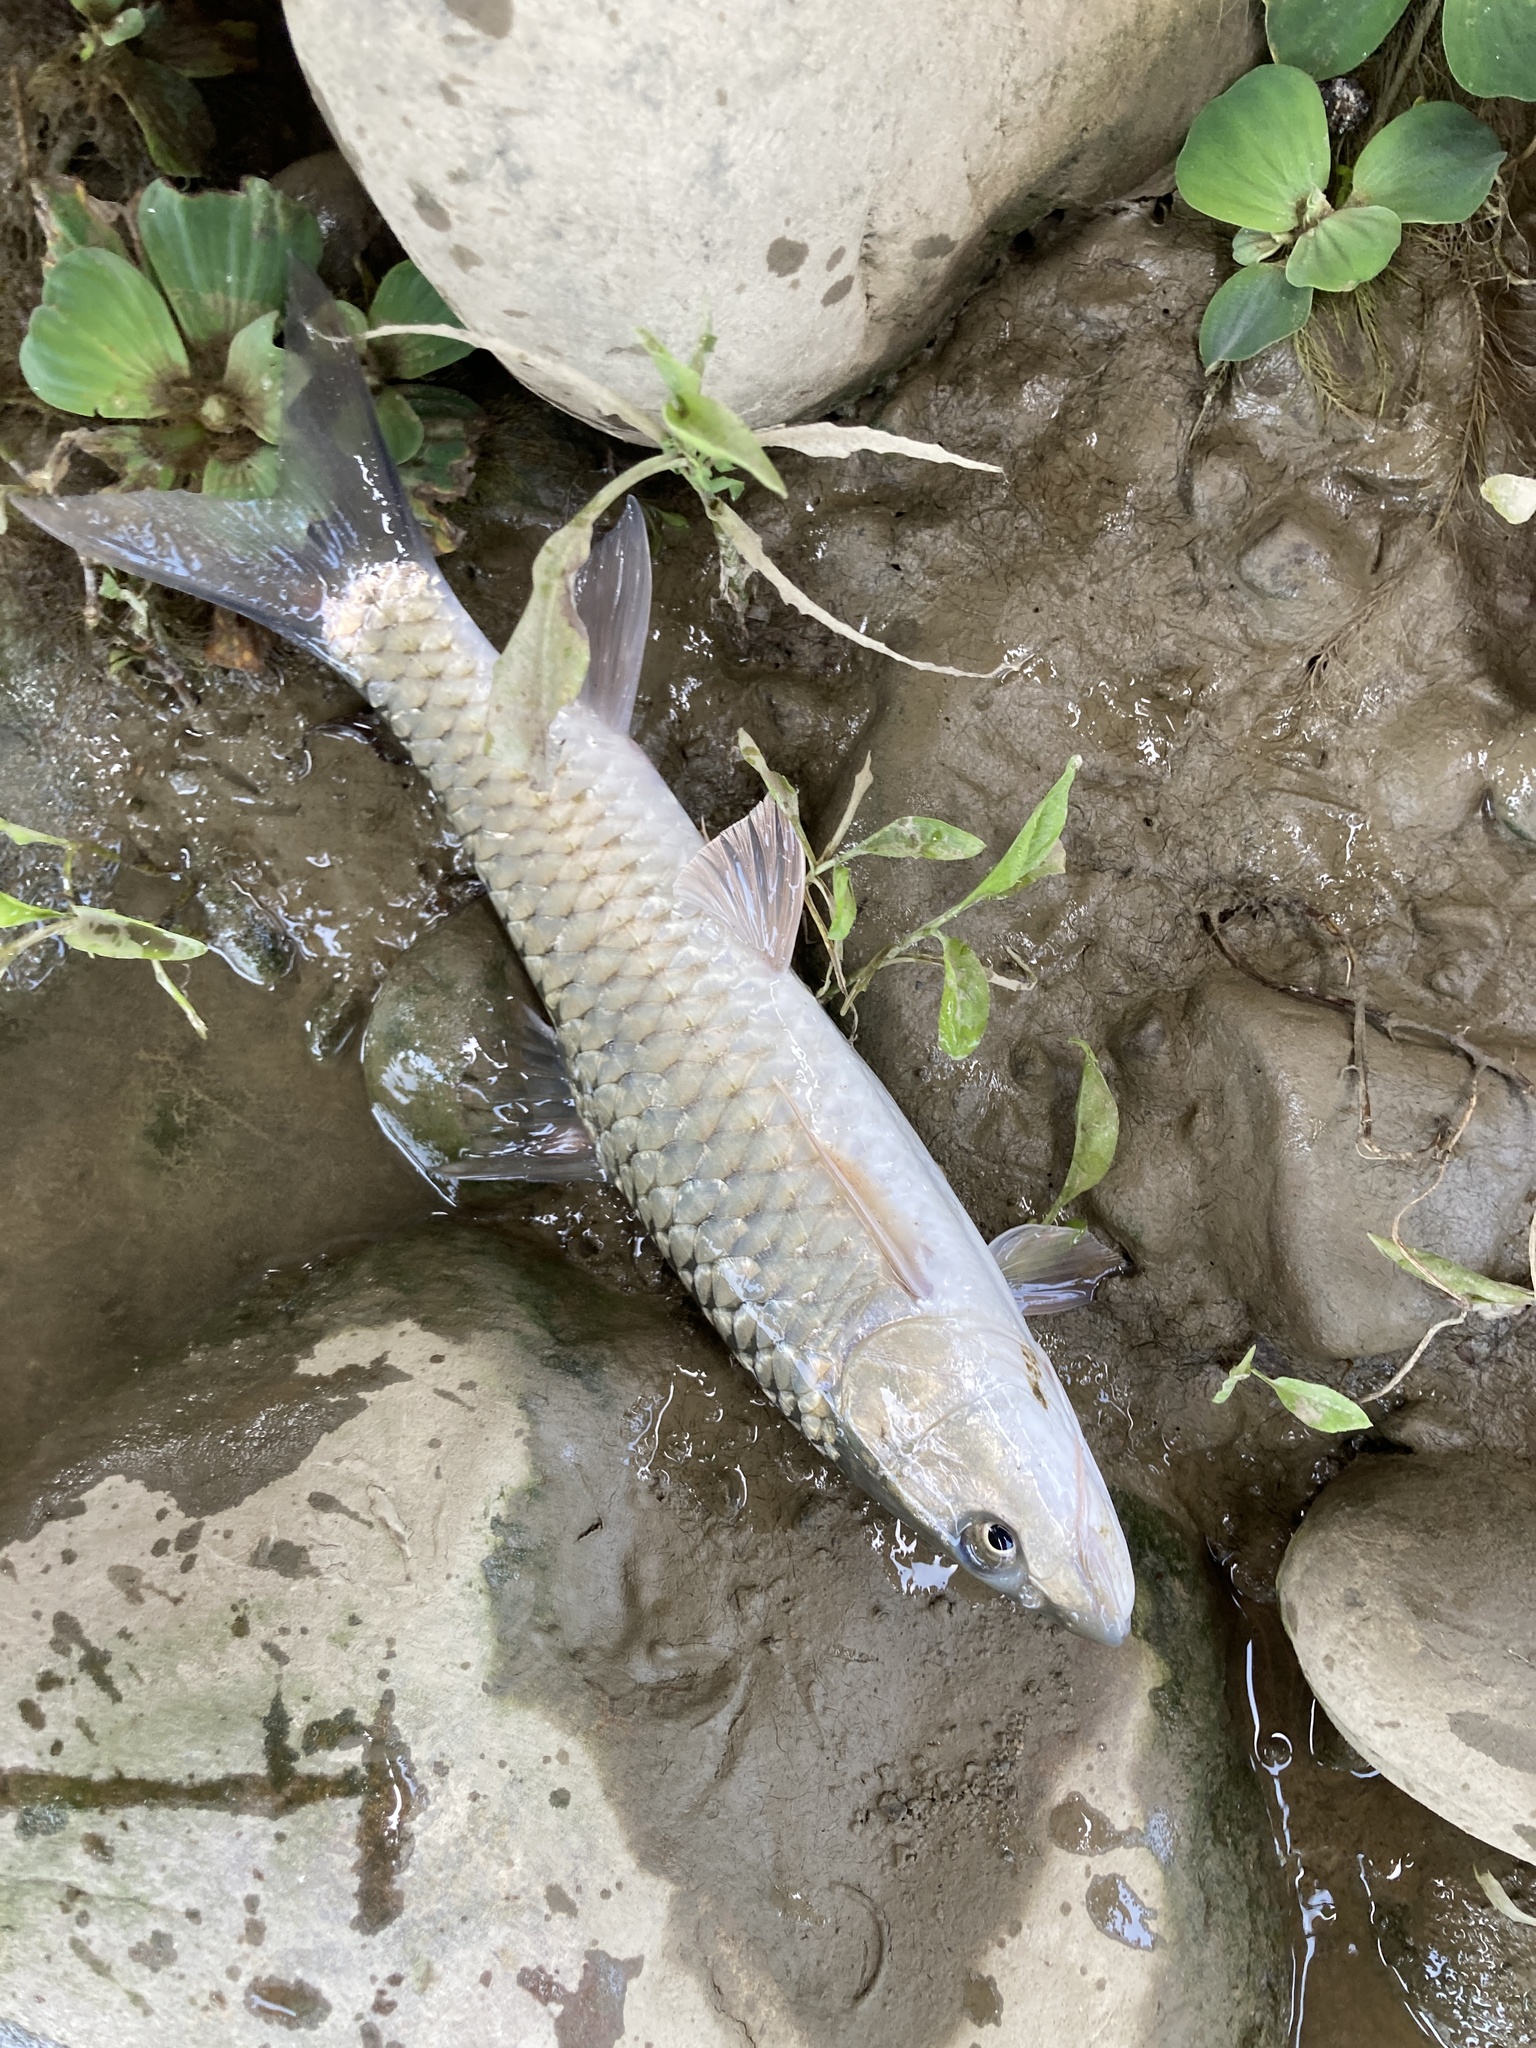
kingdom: Animalia
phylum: Chordata
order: Cypriniformes
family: Cyprinidae
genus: Spinibarbus
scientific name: Spinibarbus hollandi
